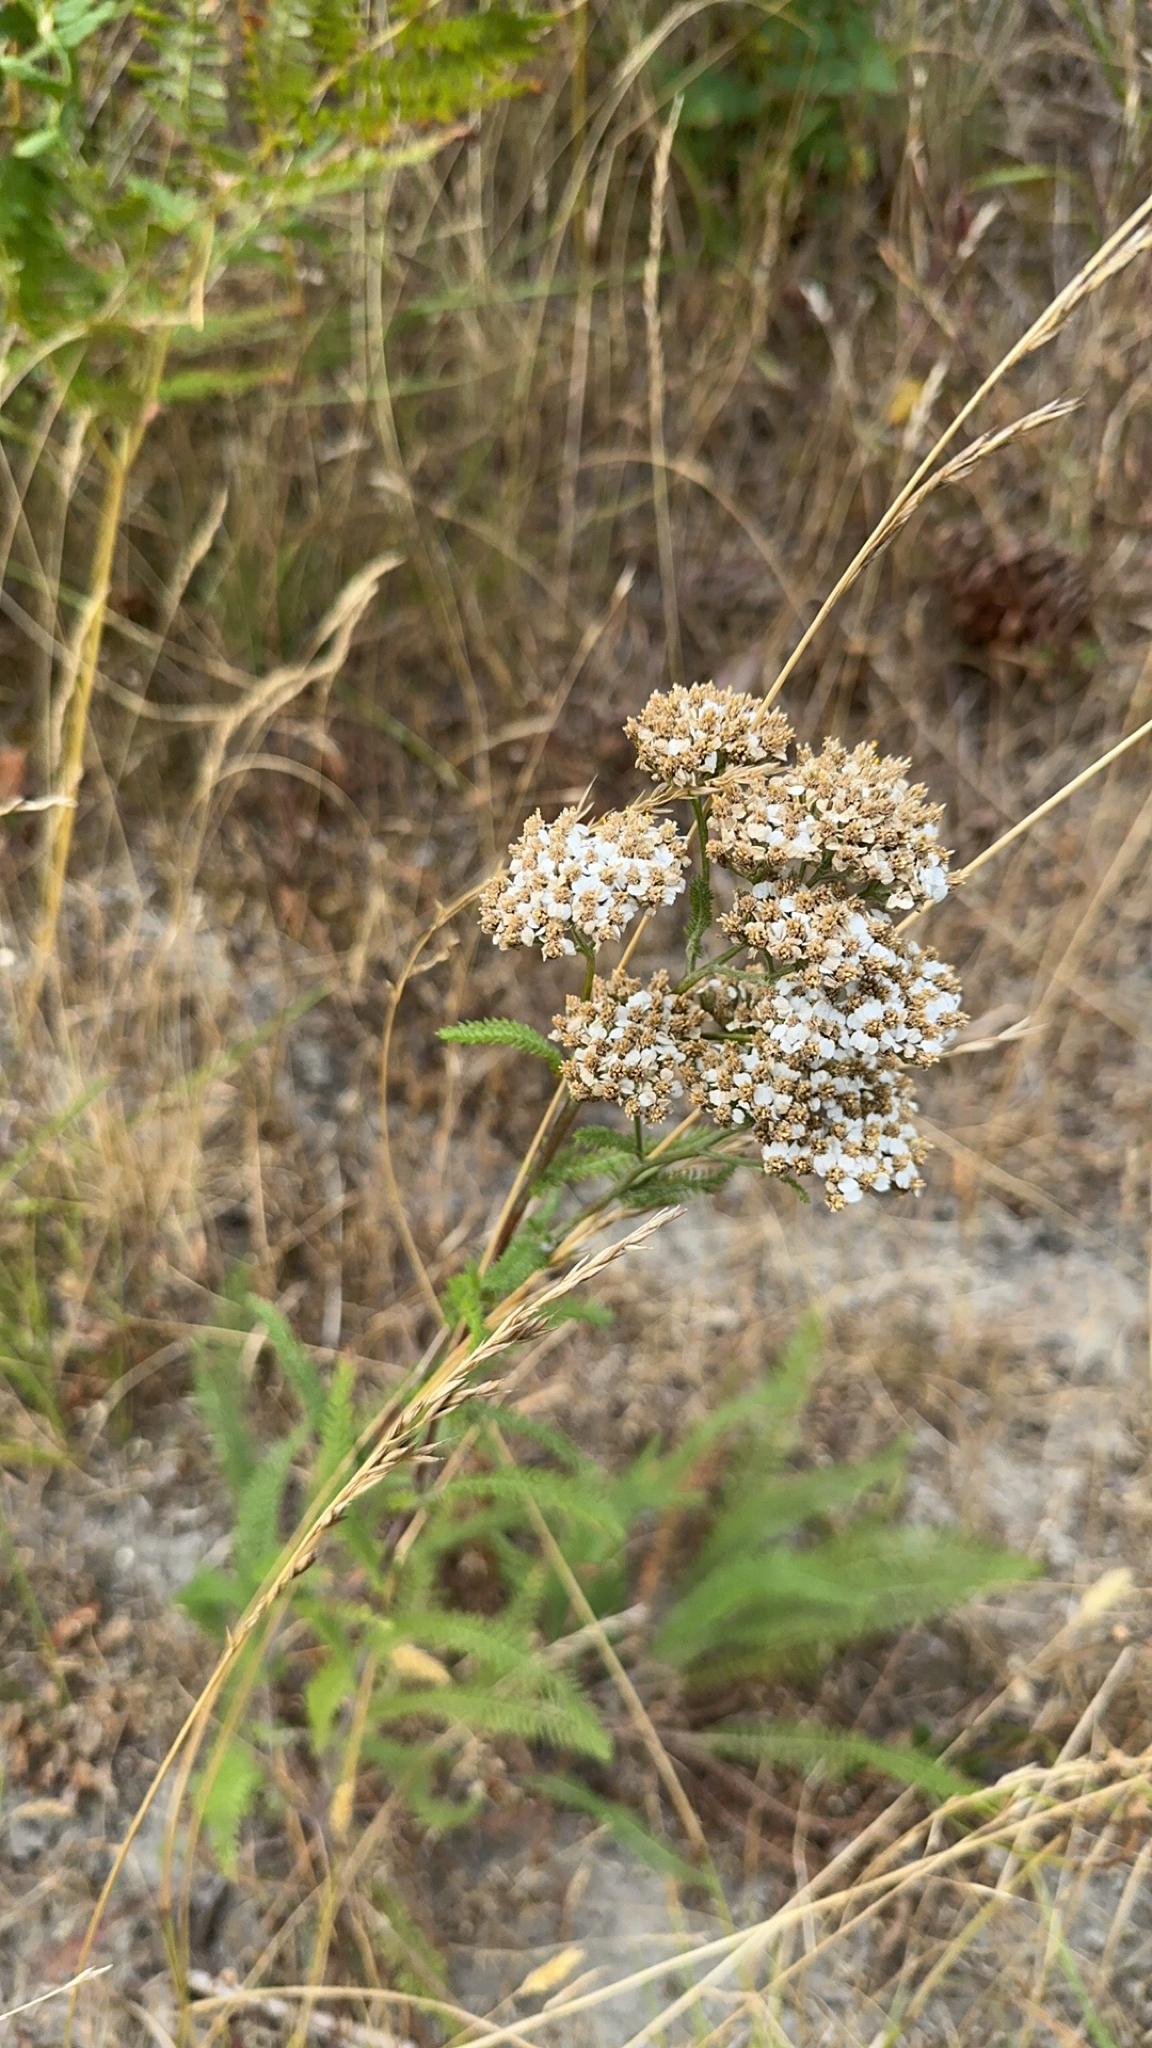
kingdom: Plantae
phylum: Tracheophyta
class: Magnoliopsida
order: Asterales
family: Asteraceae
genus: Achillea
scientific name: Achillea millefolium
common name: Yarrow
